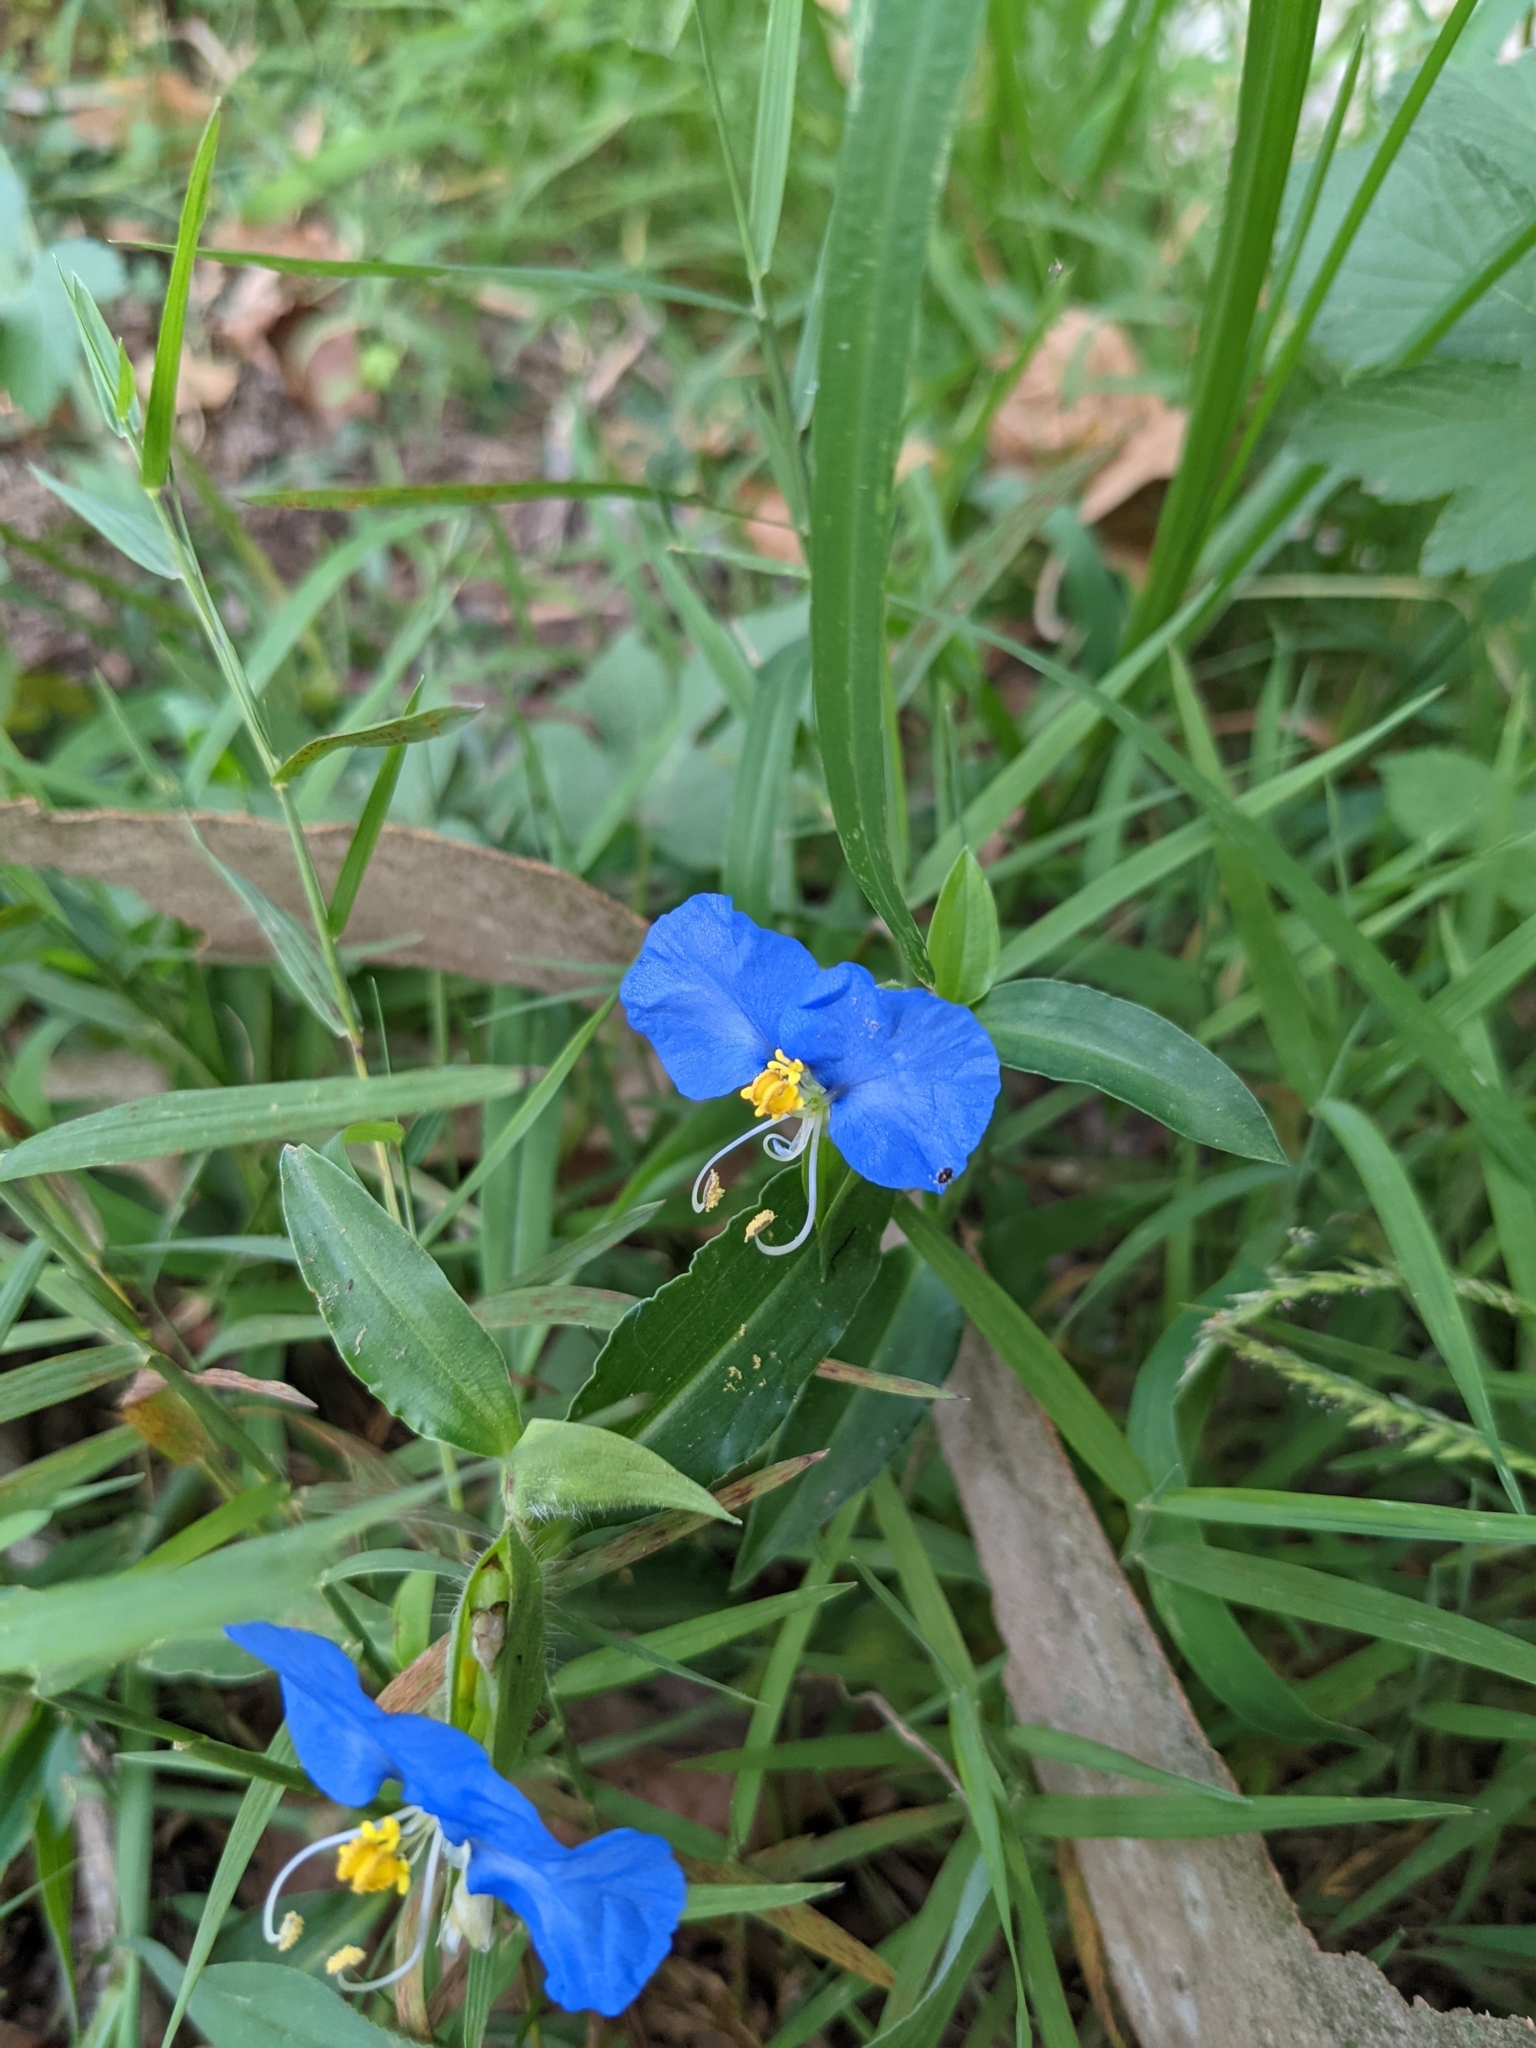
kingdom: Plantae
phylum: Tracheophyta
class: Liliopsida
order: Commelinales
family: Commelinaceae
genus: Commelina
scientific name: Commelina erecta
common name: Blousel blommetjie
